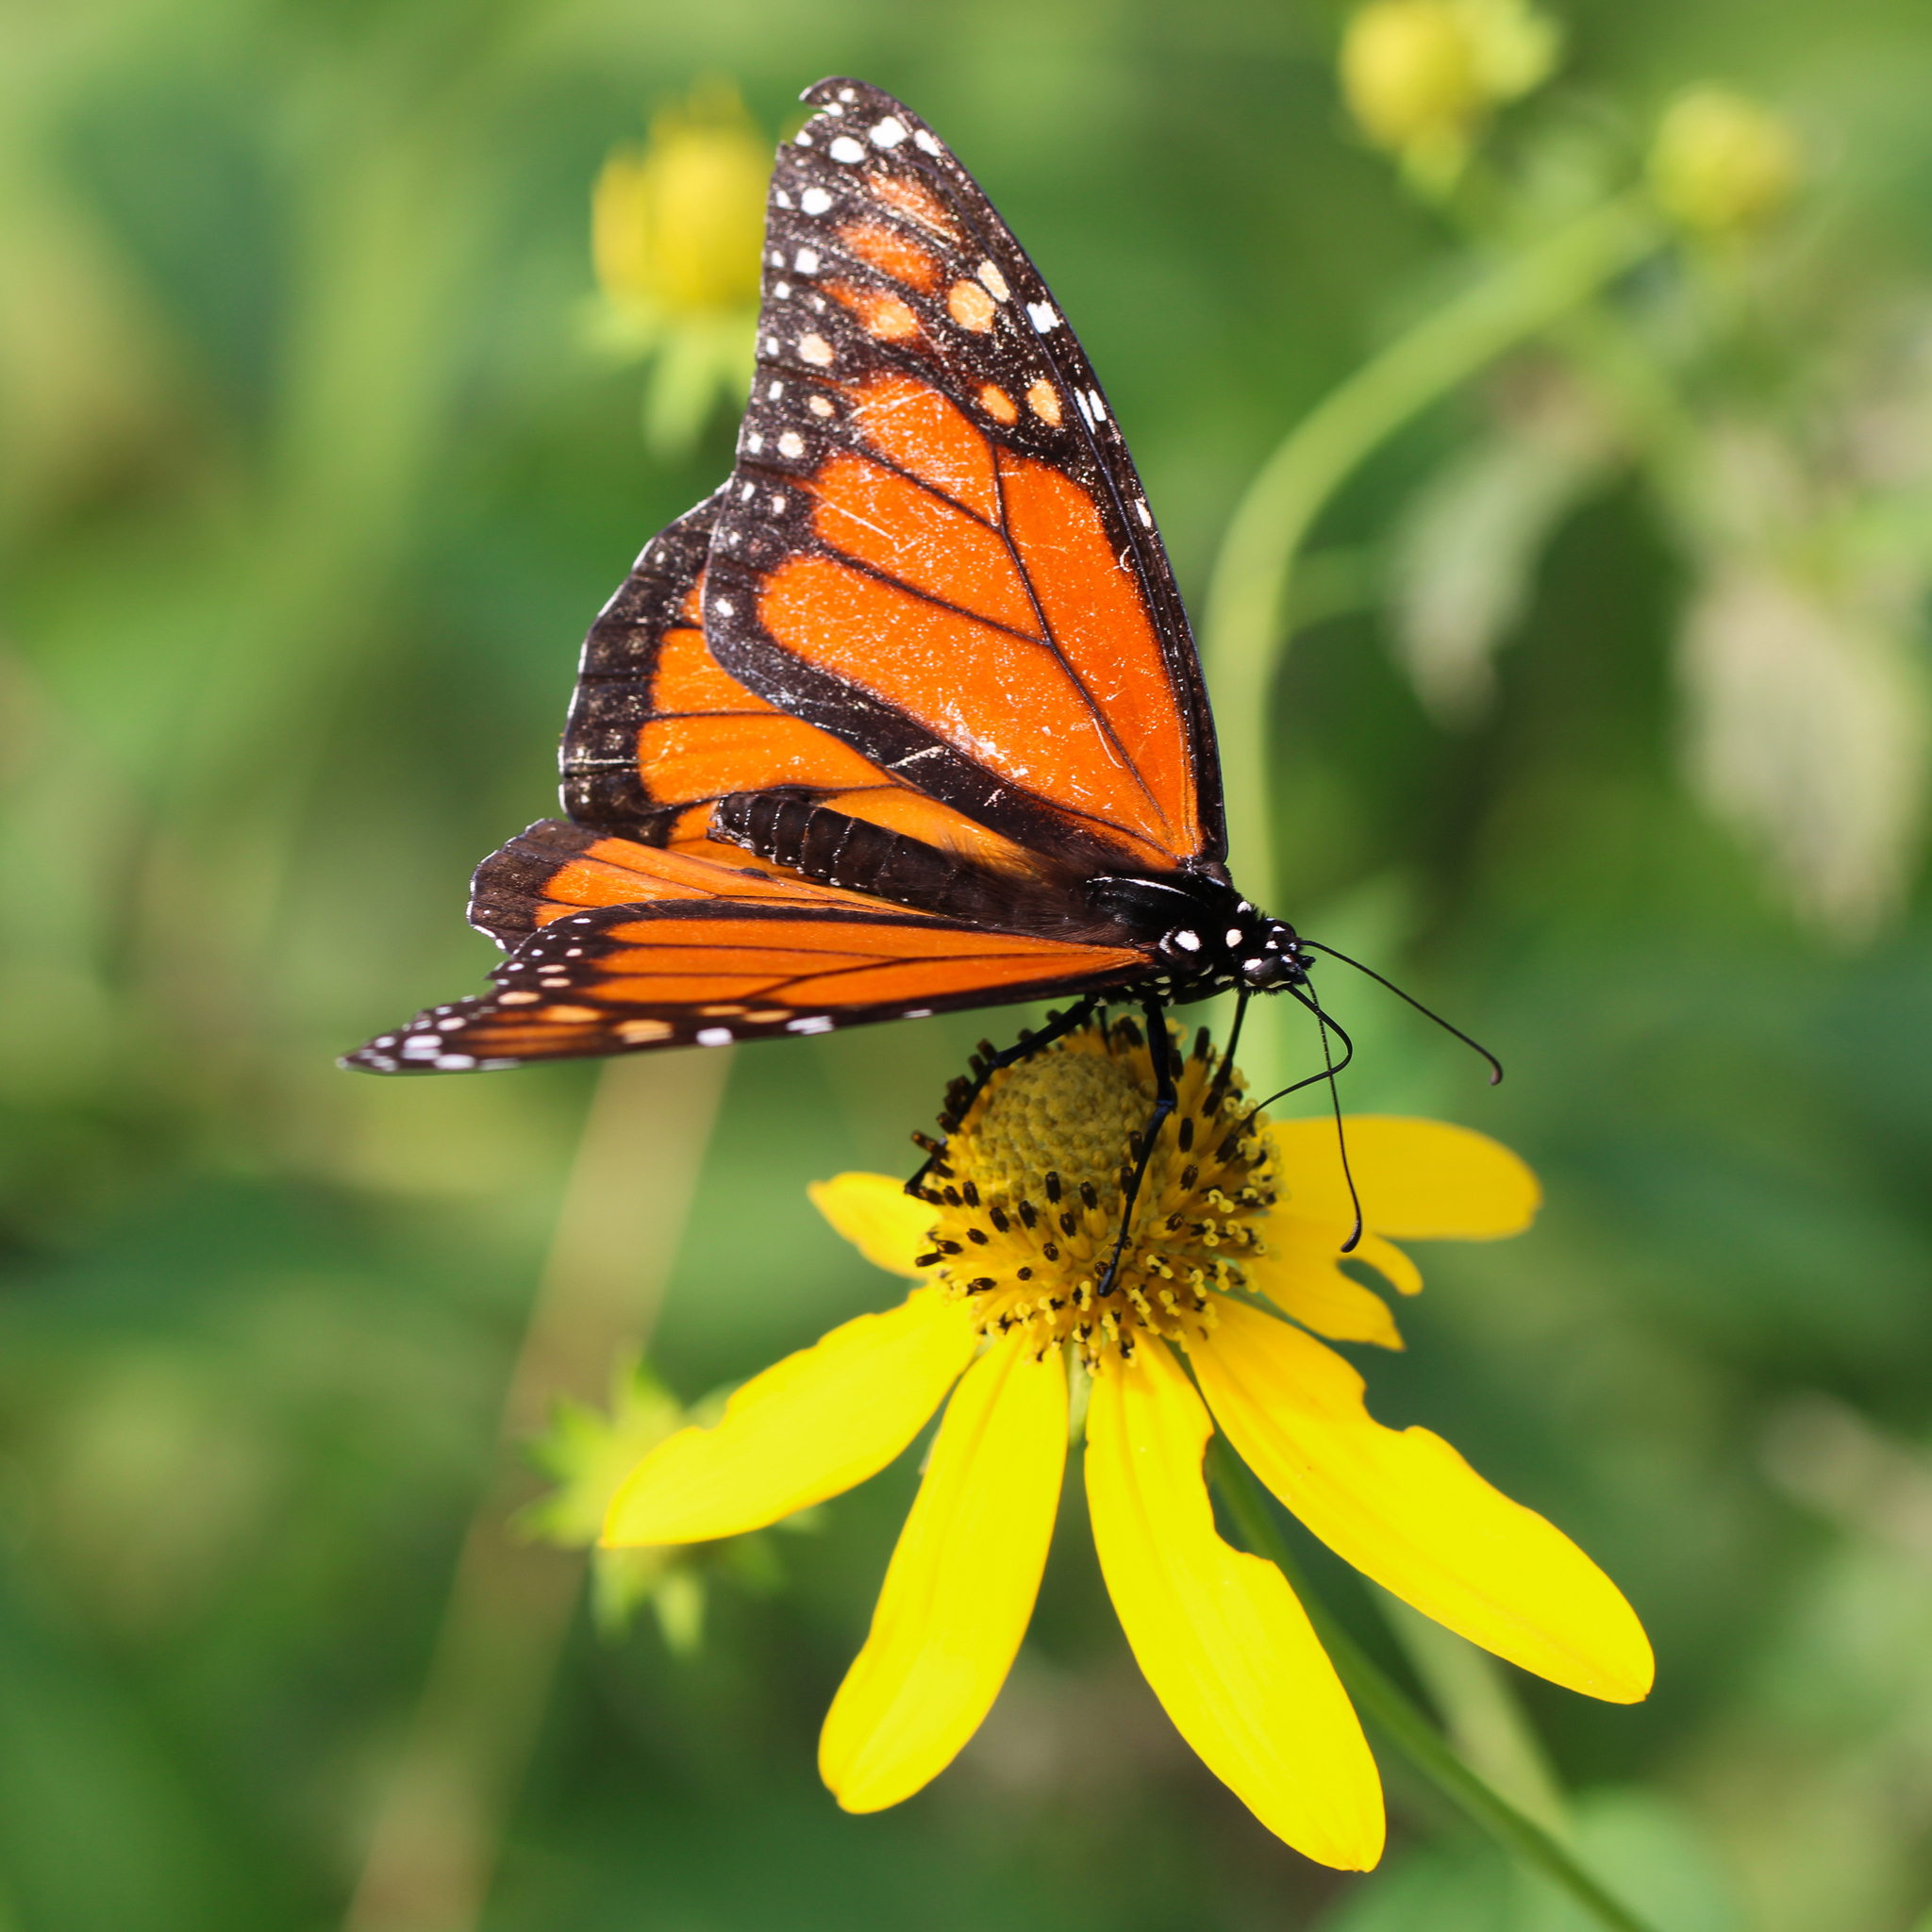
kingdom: Animalia
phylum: Arthropoda
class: Insecta
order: Lepidoptera
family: Nymphalidae
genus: Danaus
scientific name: Danaus plexippus
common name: Monarch
